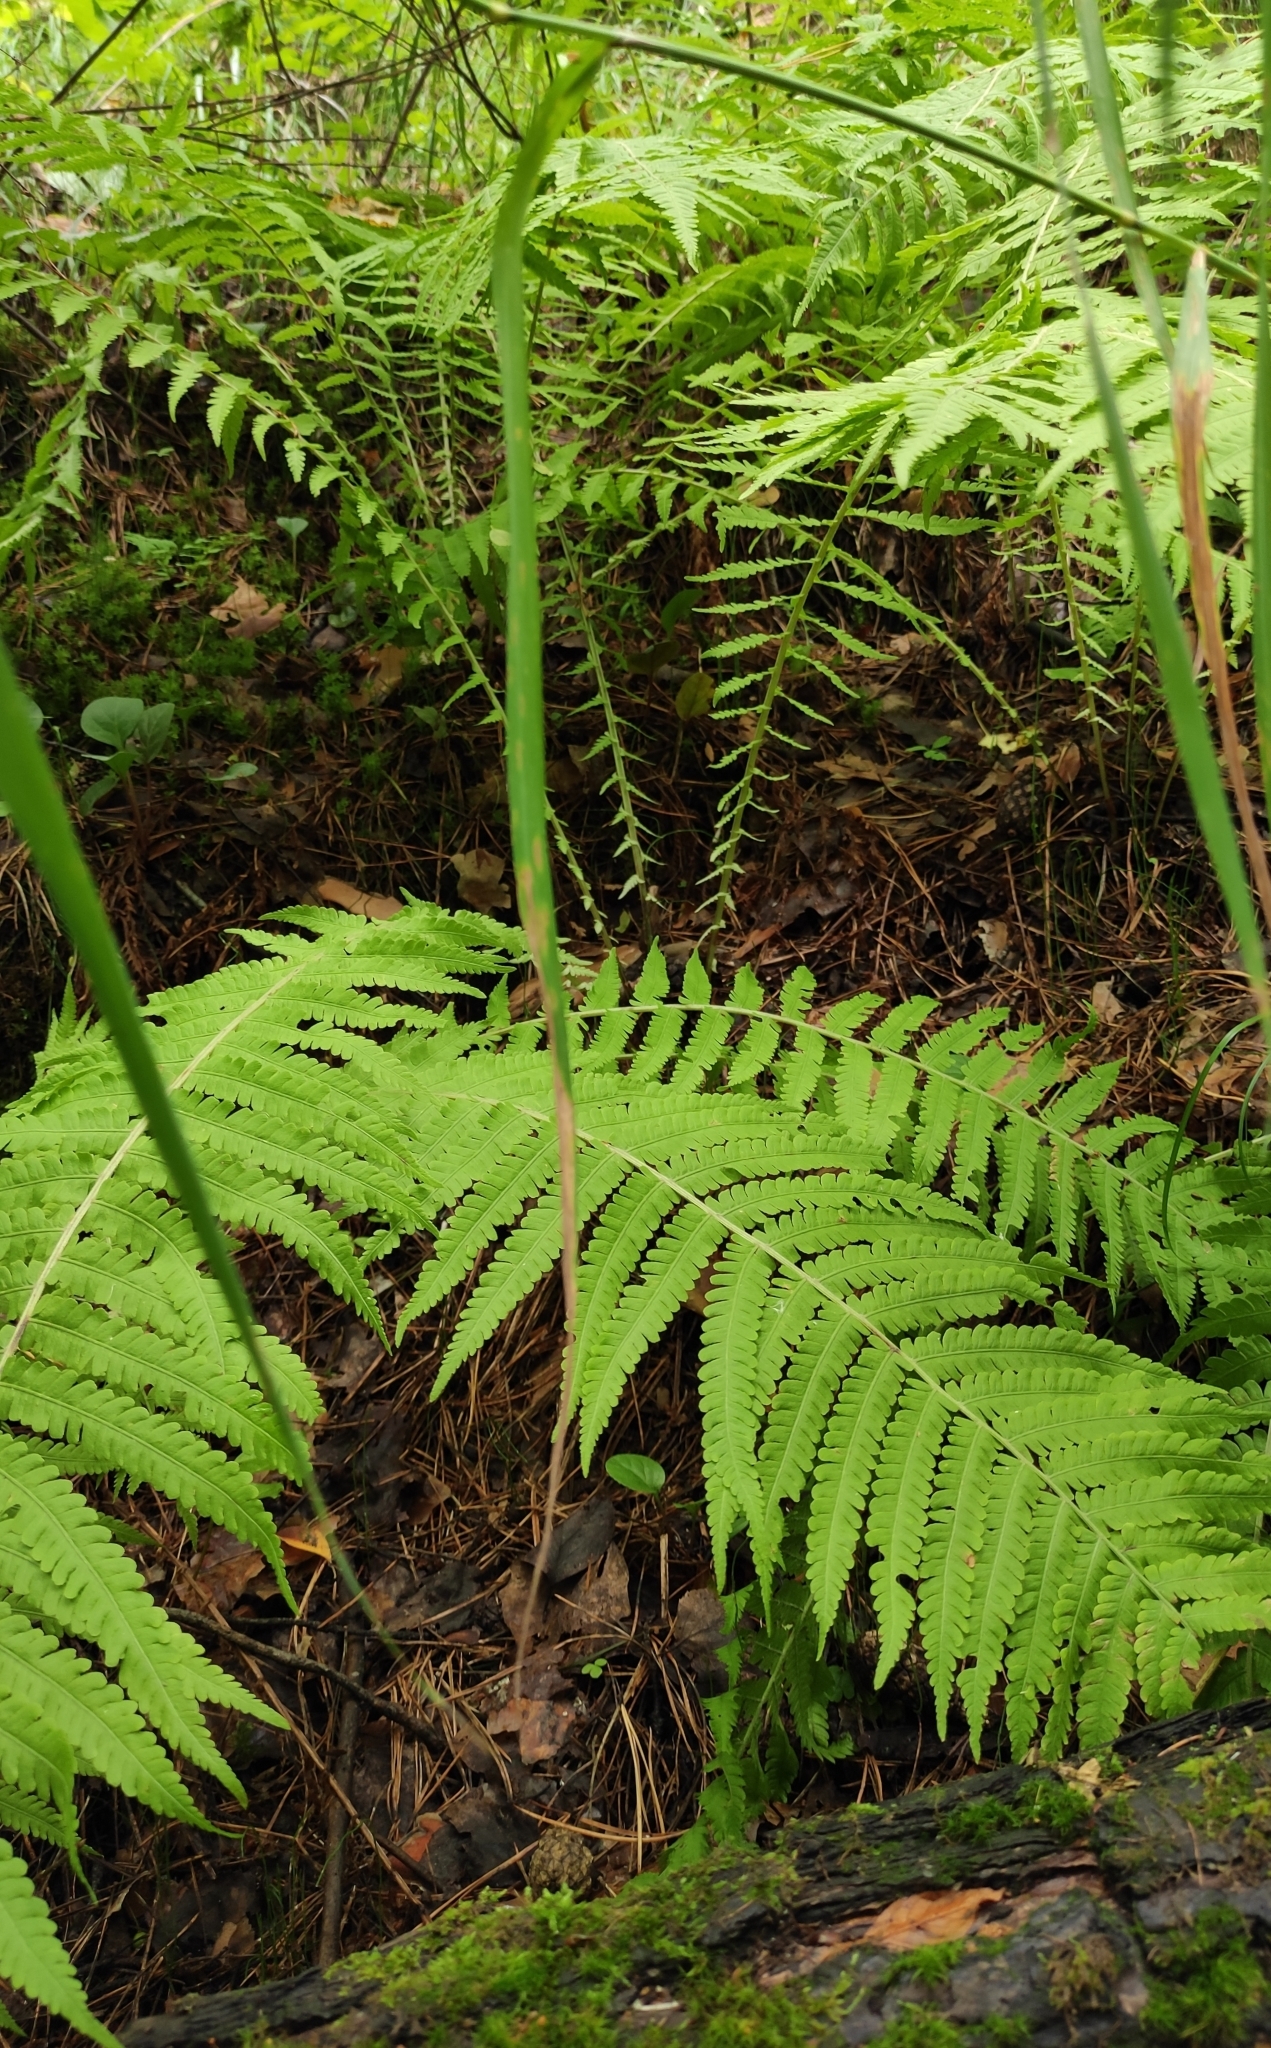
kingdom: Plantae
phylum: Tracheophyta
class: Polypodiopsida
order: Polypodiales
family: Onocleaceae
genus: Matteuccia
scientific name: Matteuccia struthiopteris
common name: Ostrich fern
